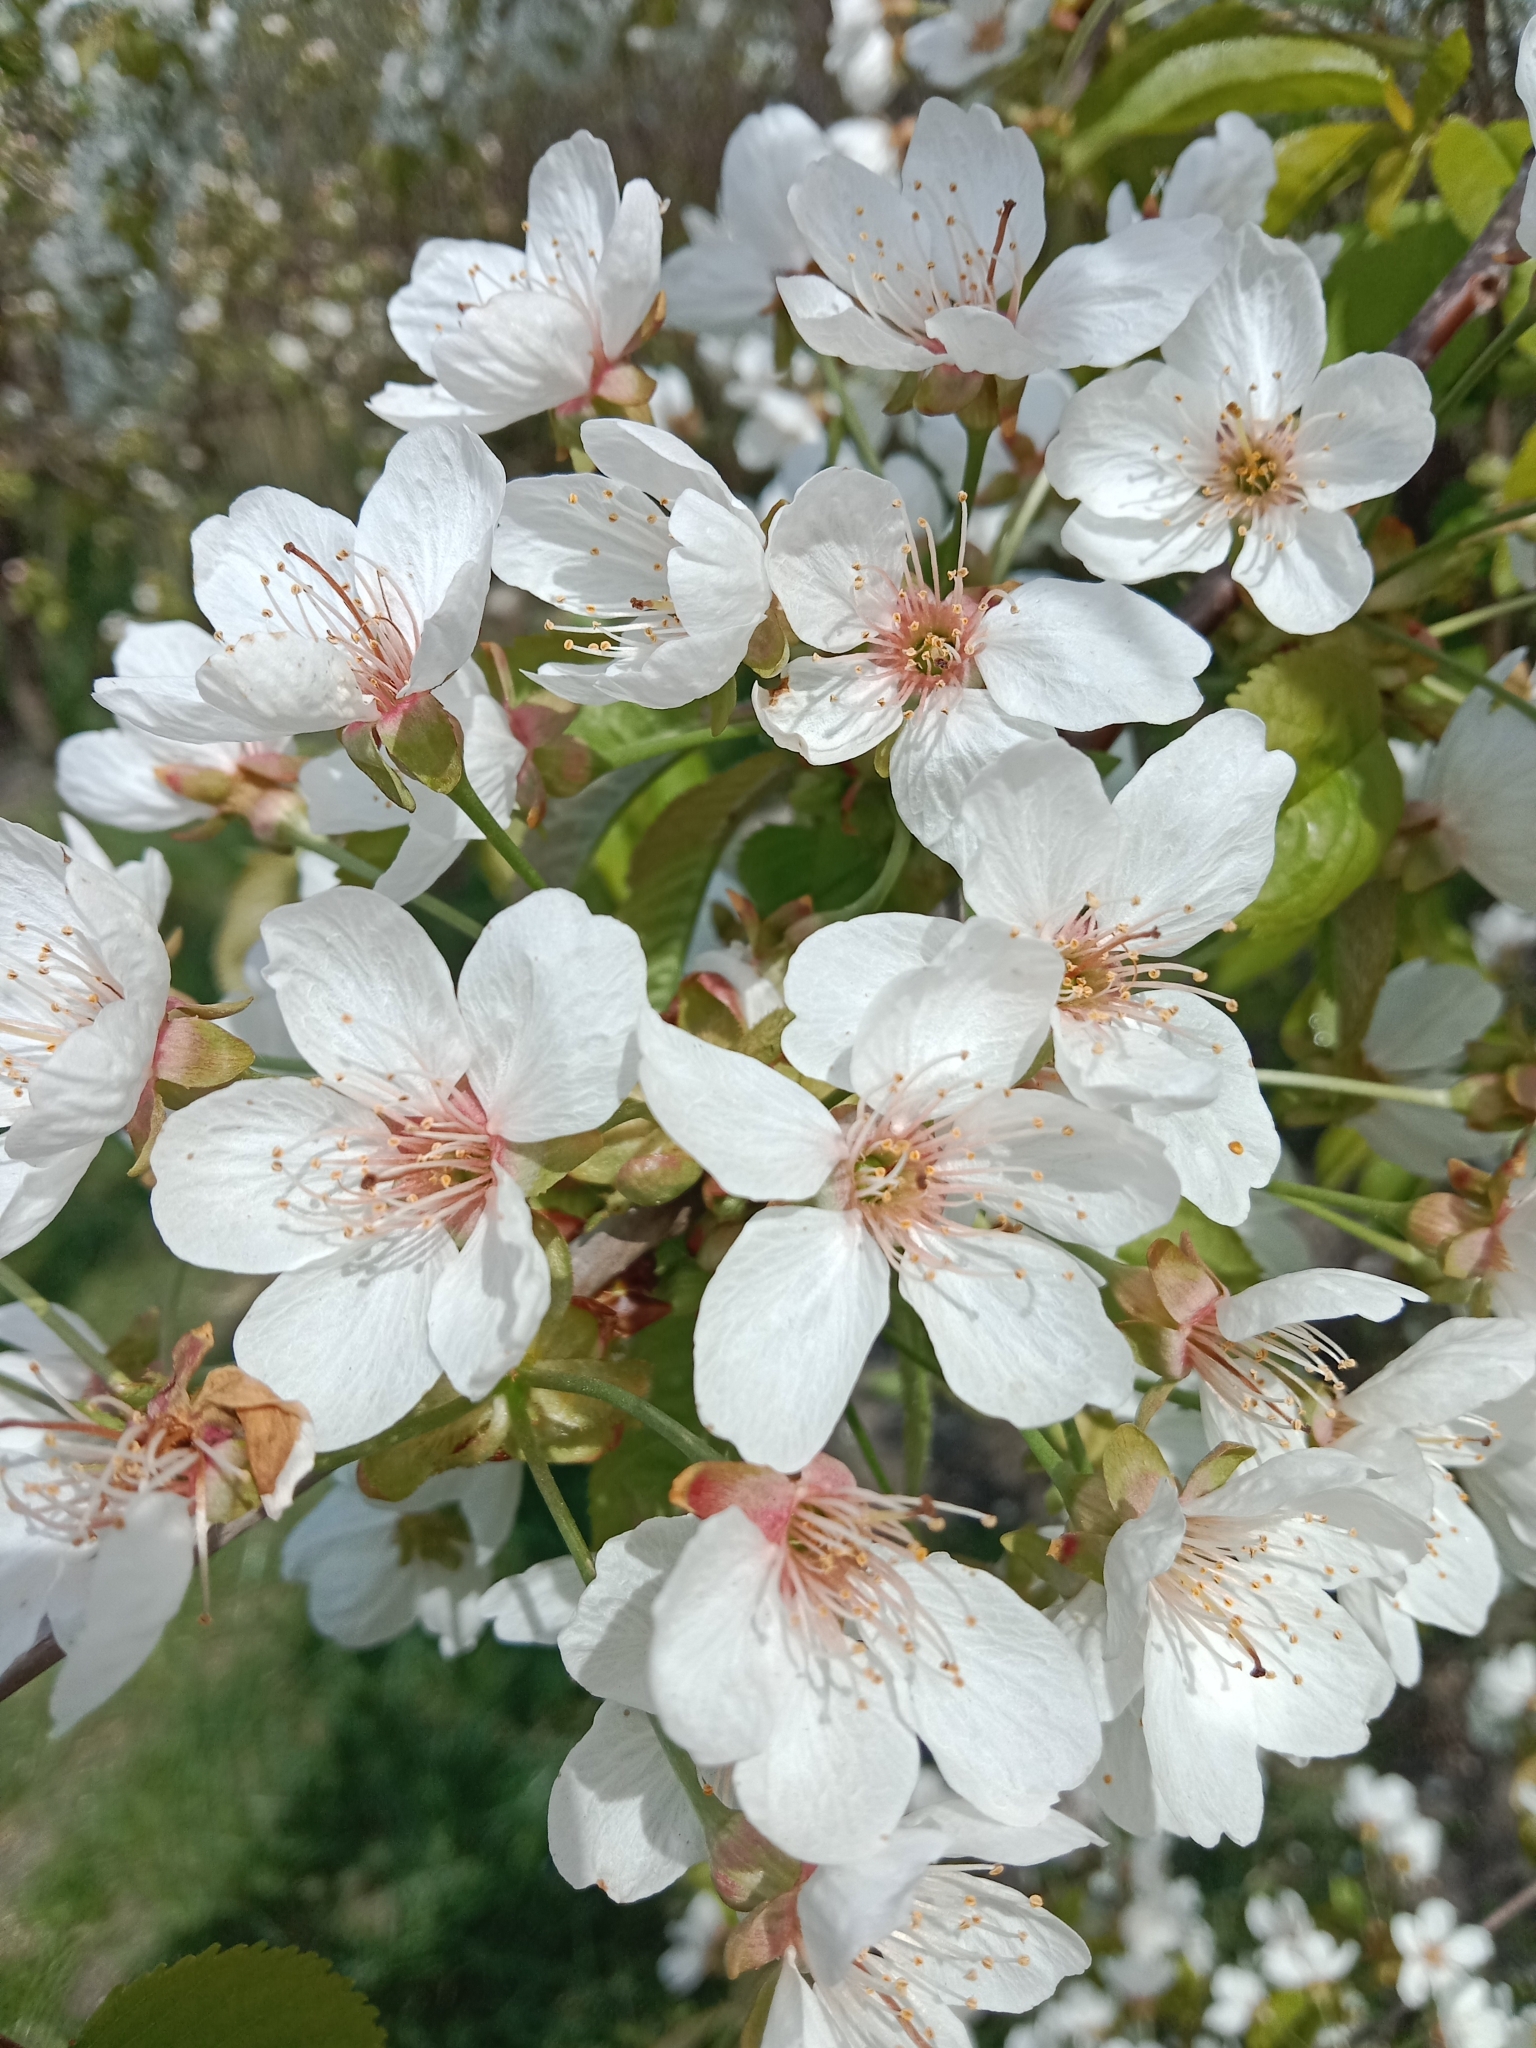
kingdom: Plantae
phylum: Tracheophyta
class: Magnoliopsida
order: Rosales
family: Rosaceae
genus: Prunus
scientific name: Prunus avium
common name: Sweet cherry
